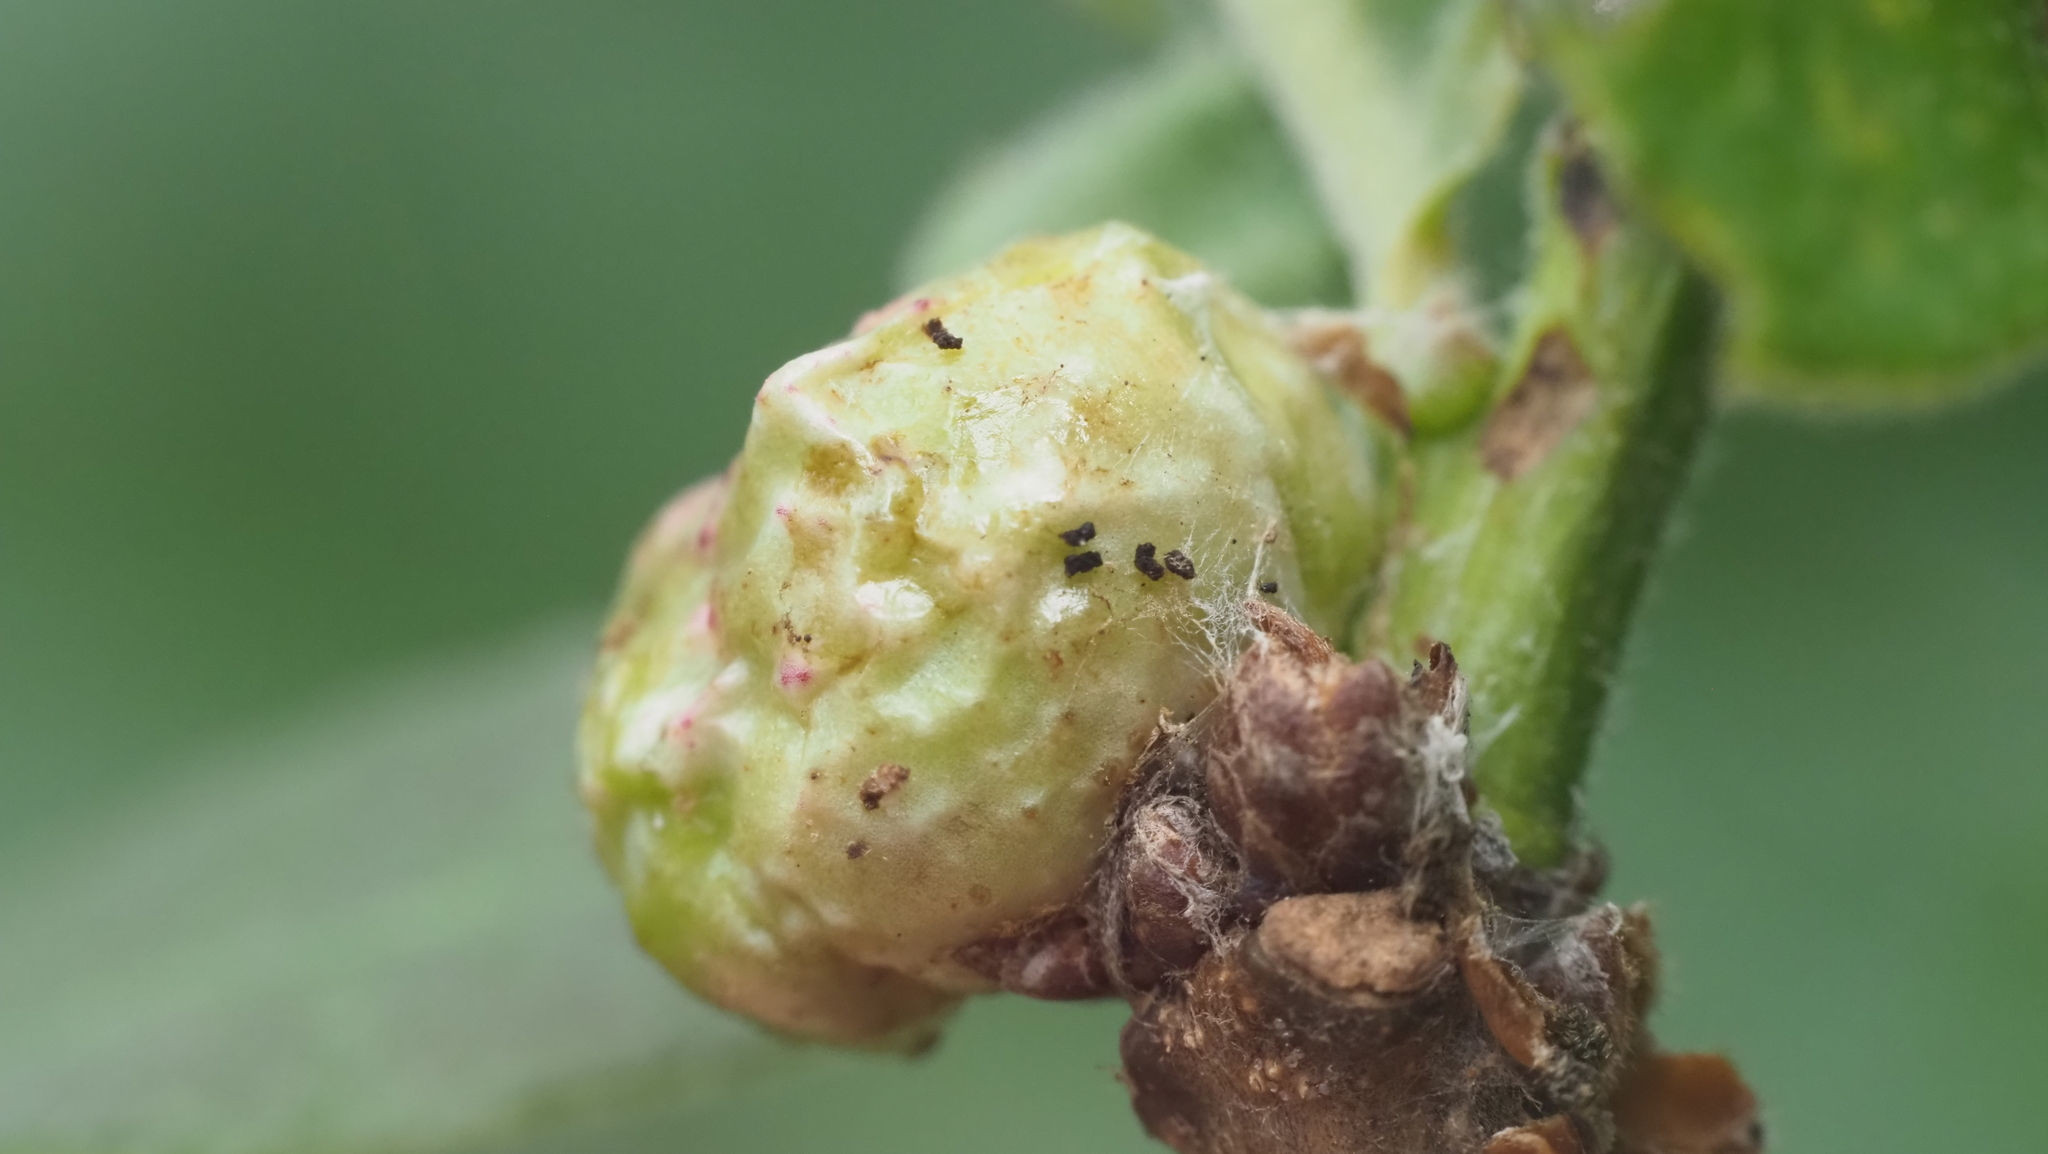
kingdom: Animalia
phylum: Arthropoda
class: Insecta
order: Hymenoptera
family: Cynipidae
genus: Andricus
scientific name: Andricus
